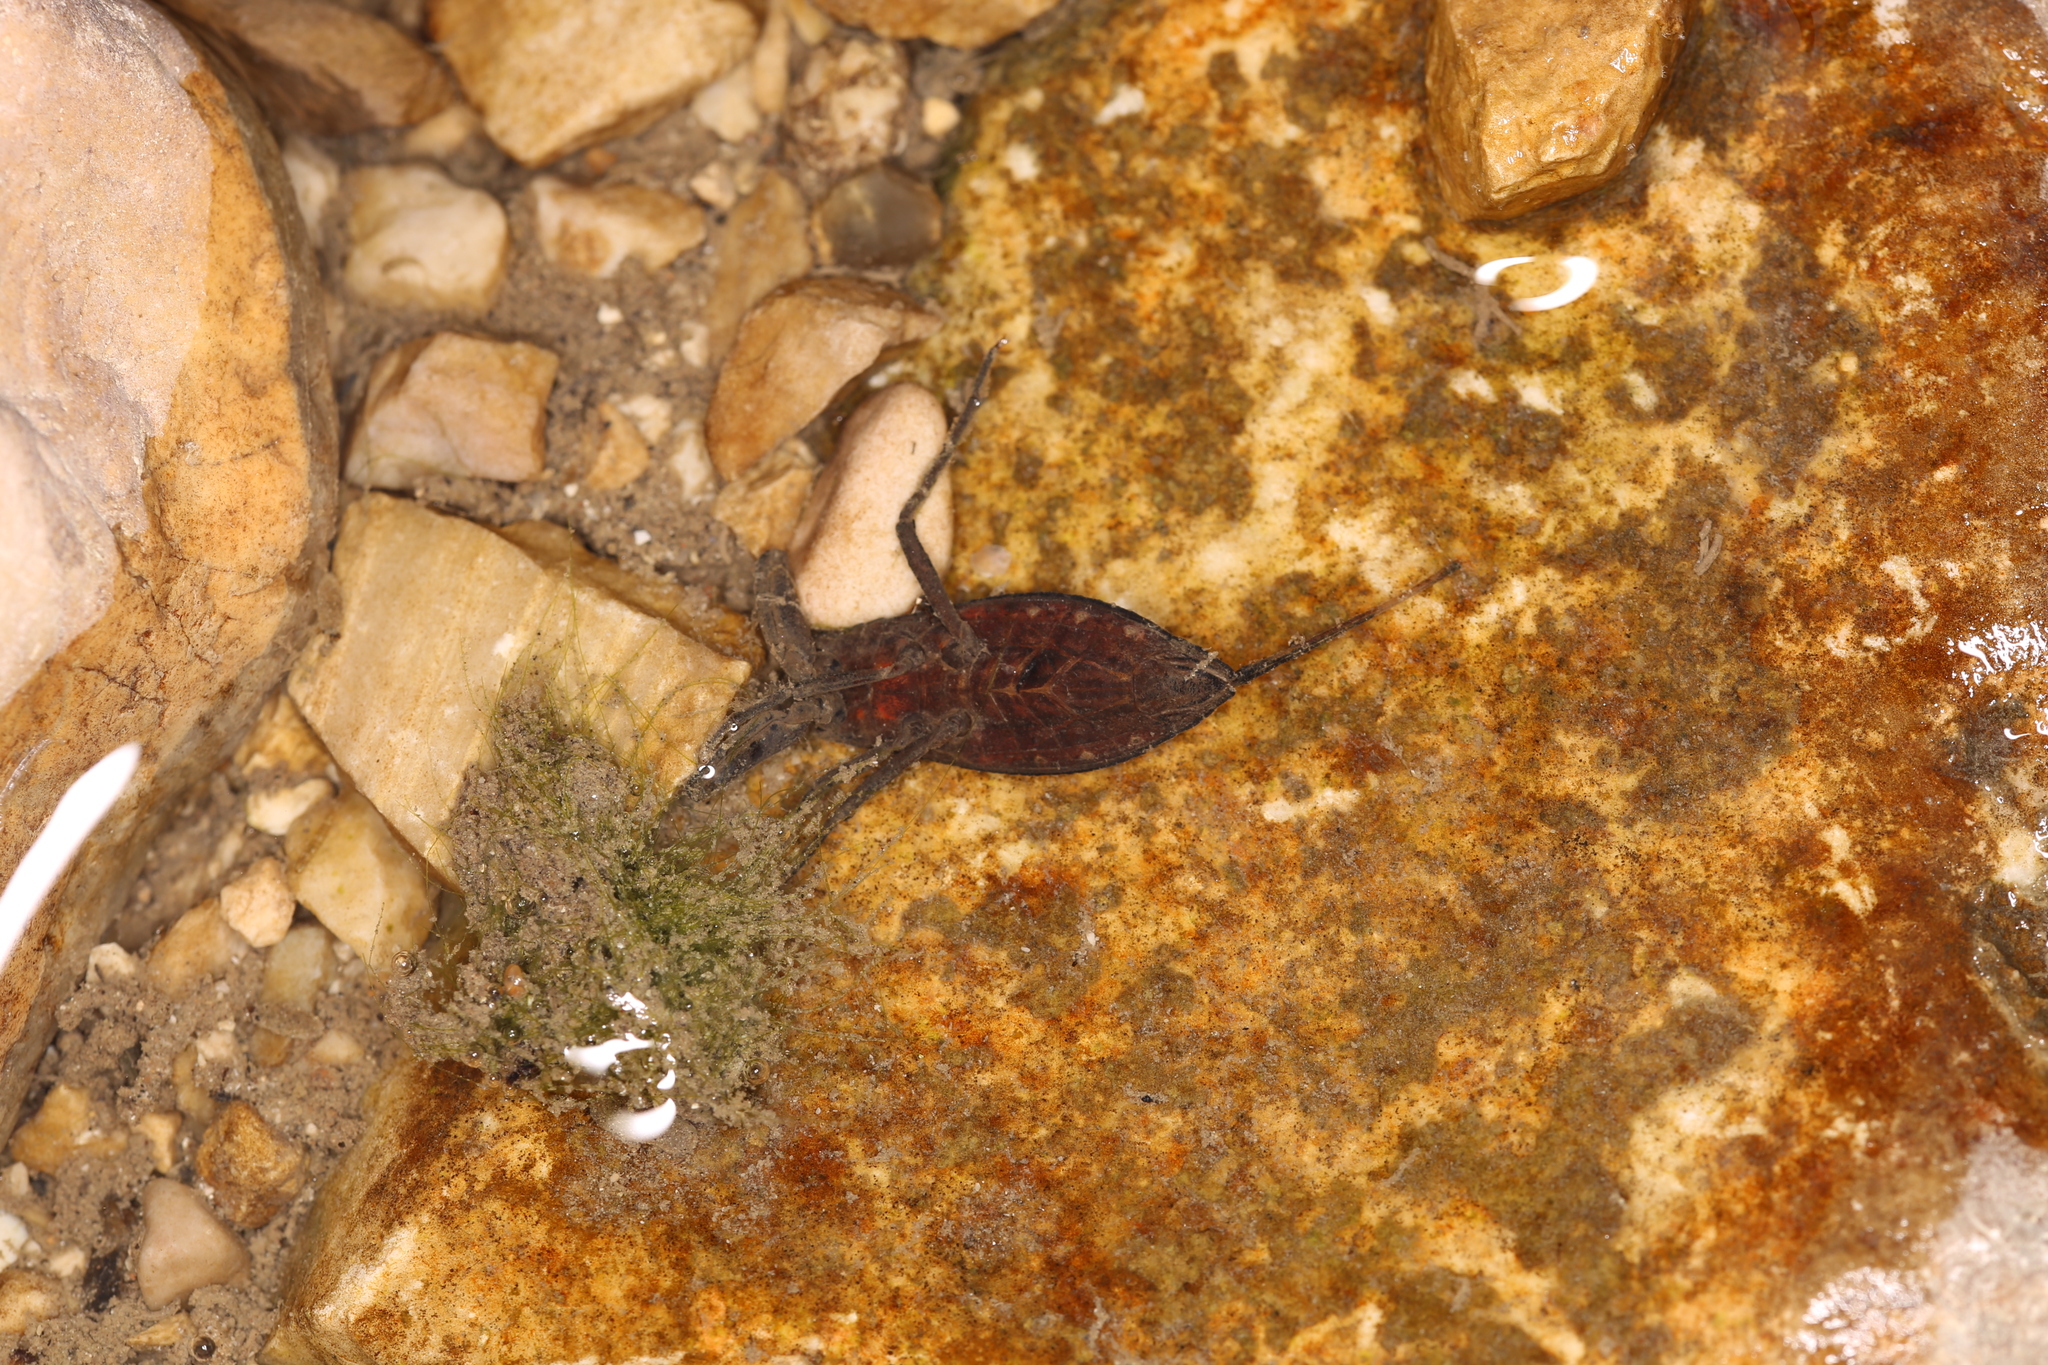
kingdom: Animalia
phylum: Arthropoda
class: Insecta
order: Hemiptera
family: Nepidae
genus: Nepa
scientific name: Nepa cinerea
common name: Water scorpion
